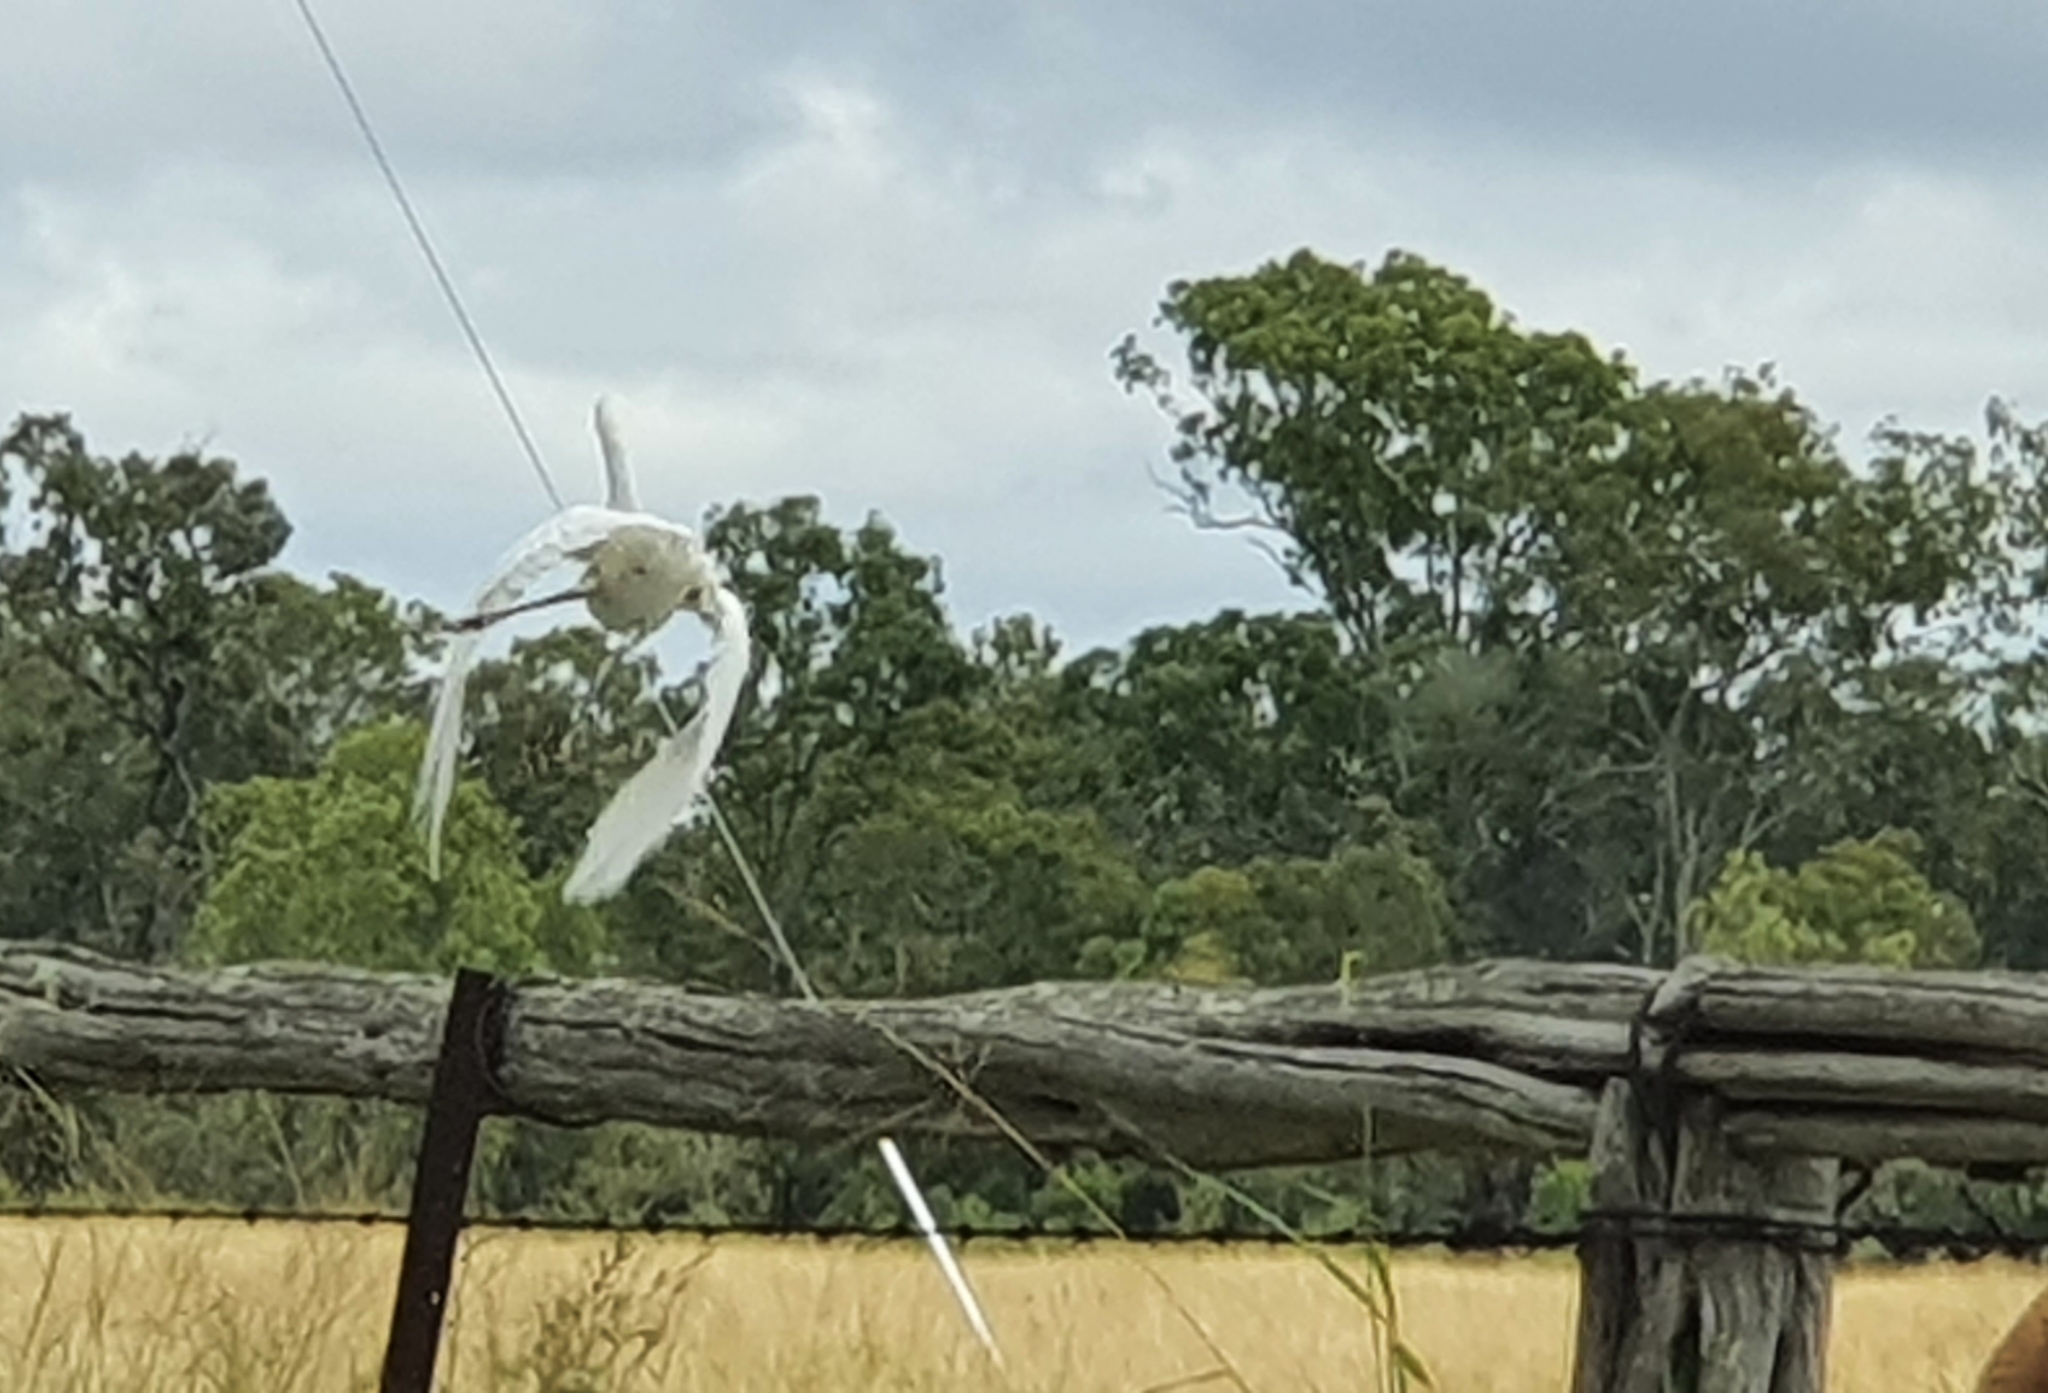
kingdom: Animalia
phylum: Chordata
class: Aves
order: Pelecaniformes
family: Ardeidae
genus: Bubulcus
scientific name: Bubulcus coromandus
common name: Eastern cattle egret
